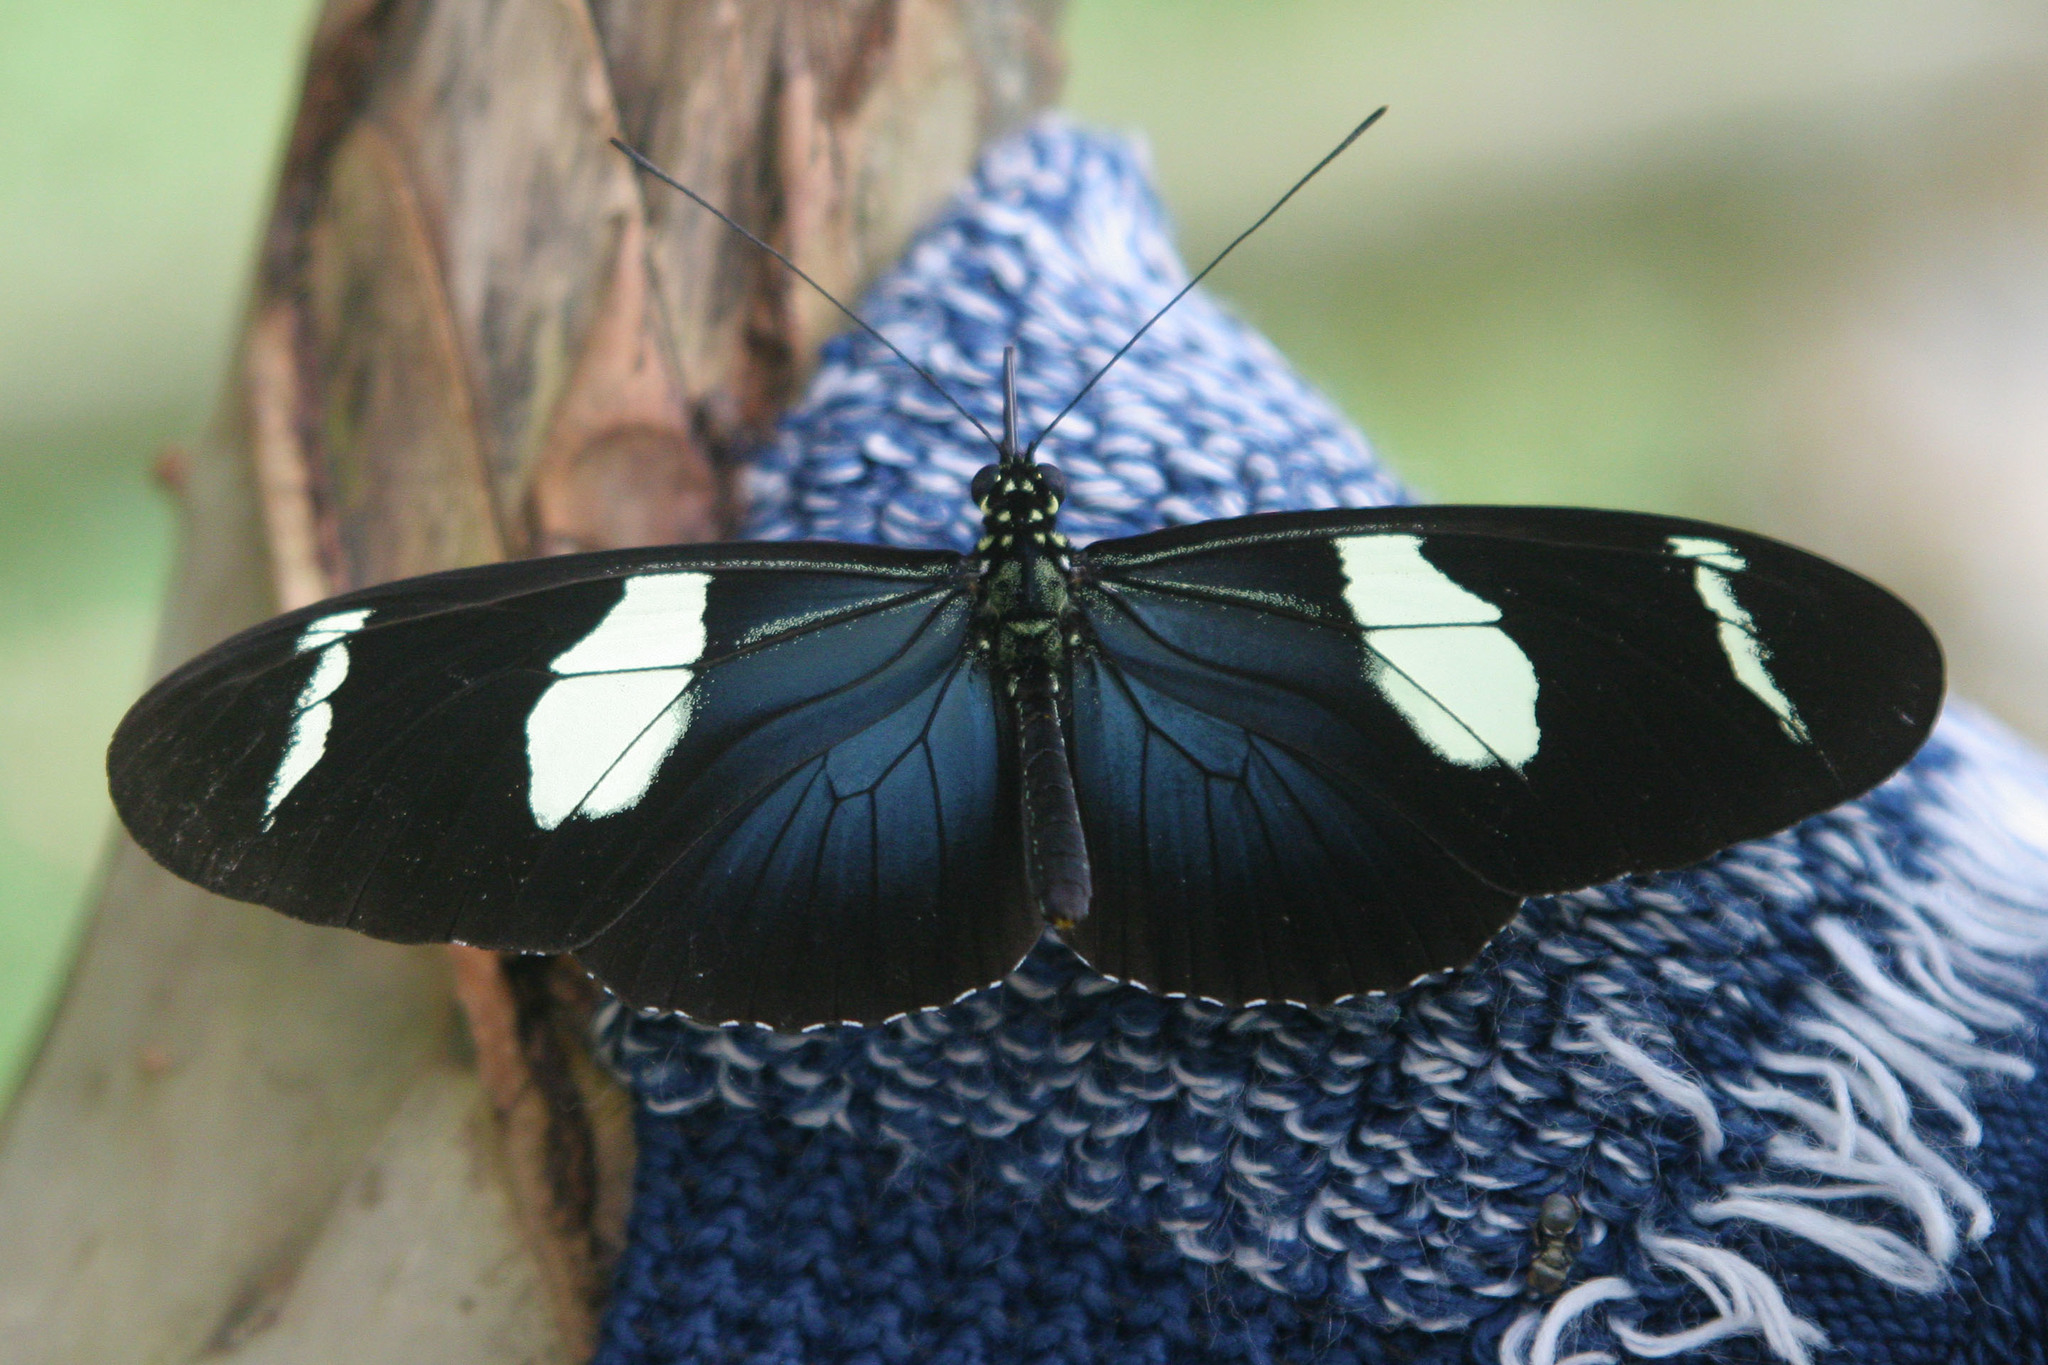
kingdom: Animalia
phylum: Arthropoda
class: Insecta
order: Lepidoptera
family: Nymphalidae
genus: Heliconius
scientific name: Heliconius sara
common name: Sara longwing
